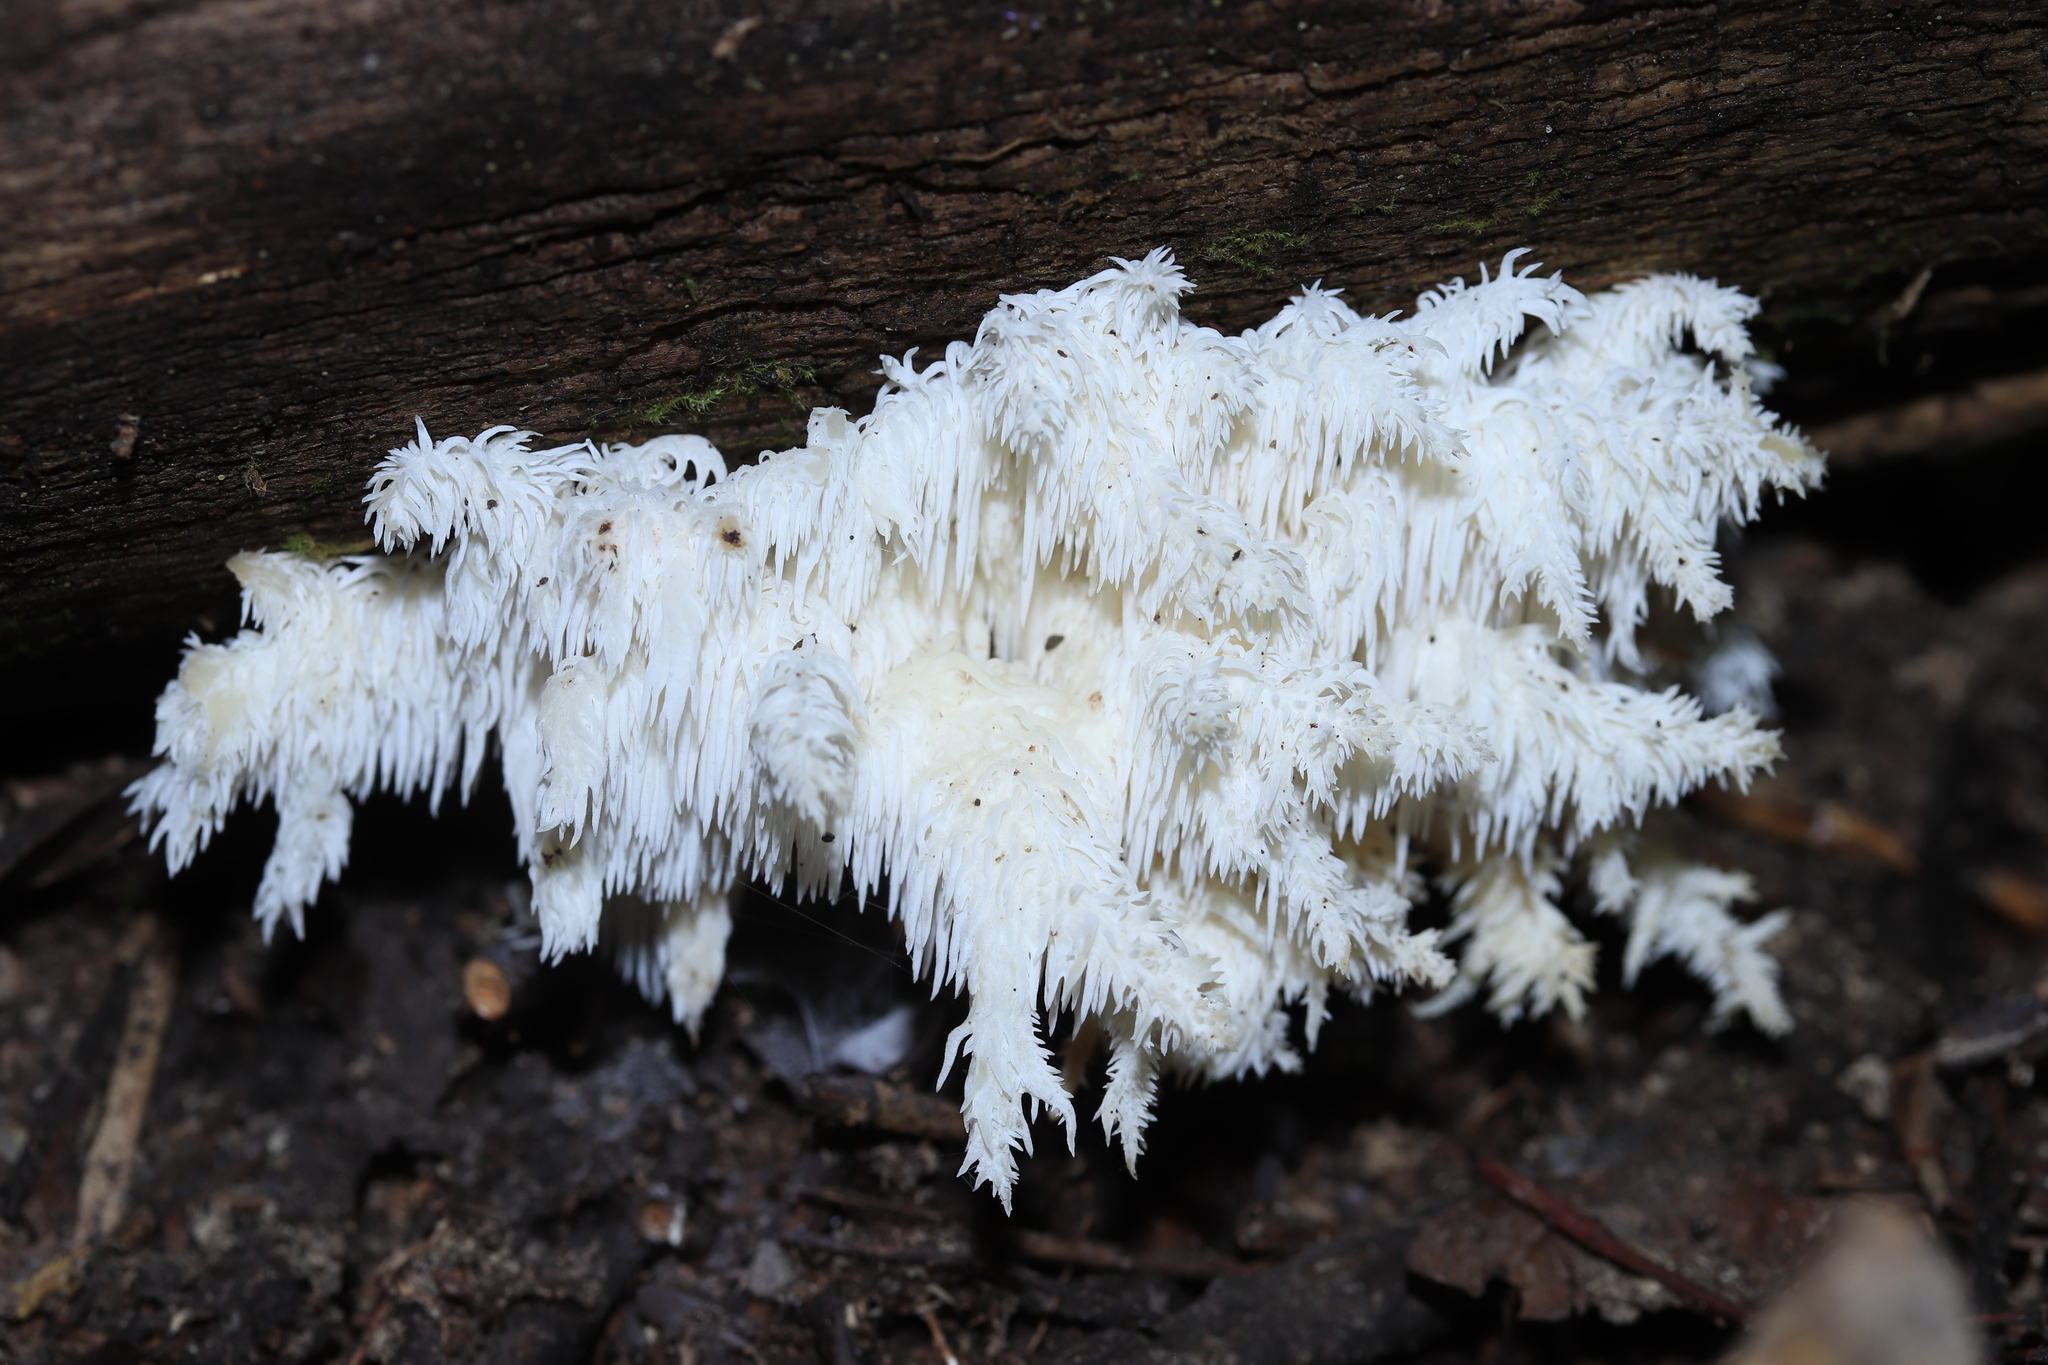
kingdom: Fungi
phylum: Basidiomycota
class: Agaricomycetes
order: Russulales
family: Hericiaceae
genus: Hericium
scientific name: Hericium coralloides
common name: Coral tooth
